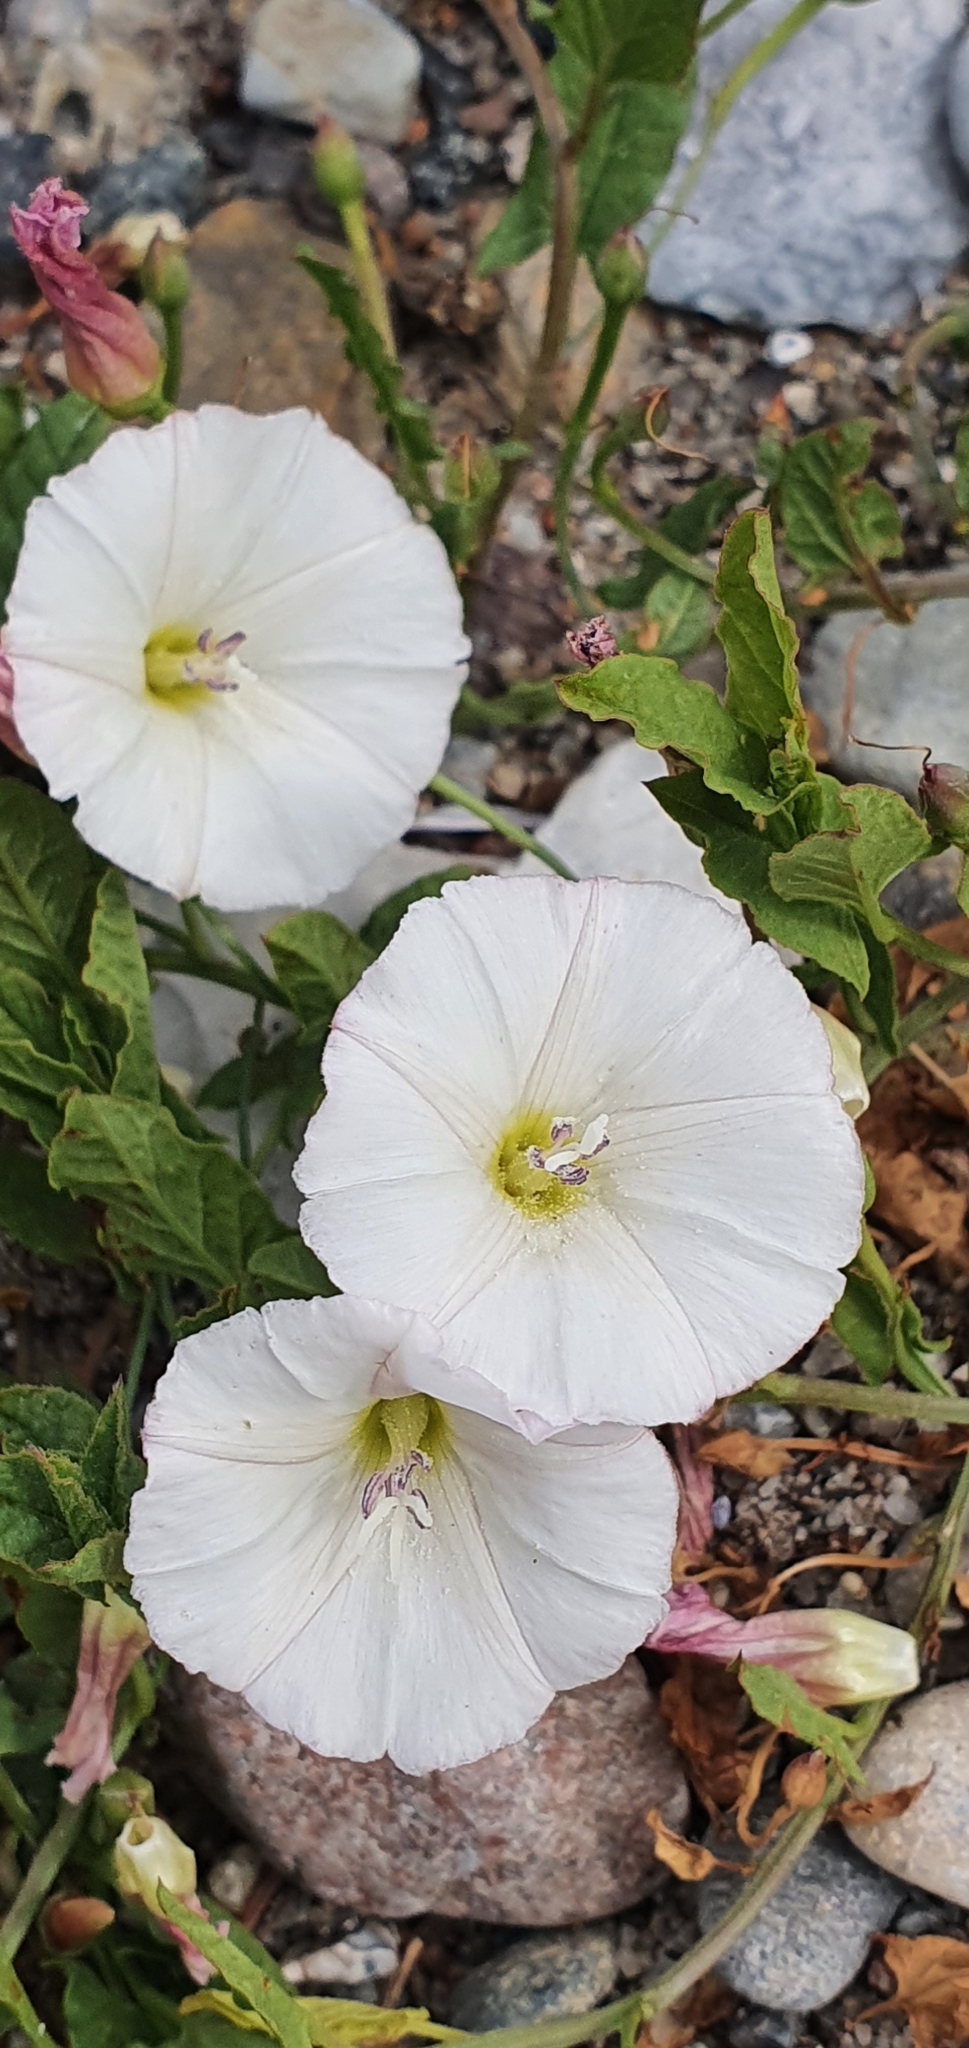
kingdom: Plantae
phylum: Tracheophyta
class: Magnoliopsida
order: Solanales
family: Convolvulaceae
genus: Convolvulus
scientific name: Convolvulus arvensis
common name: Field bindweed
